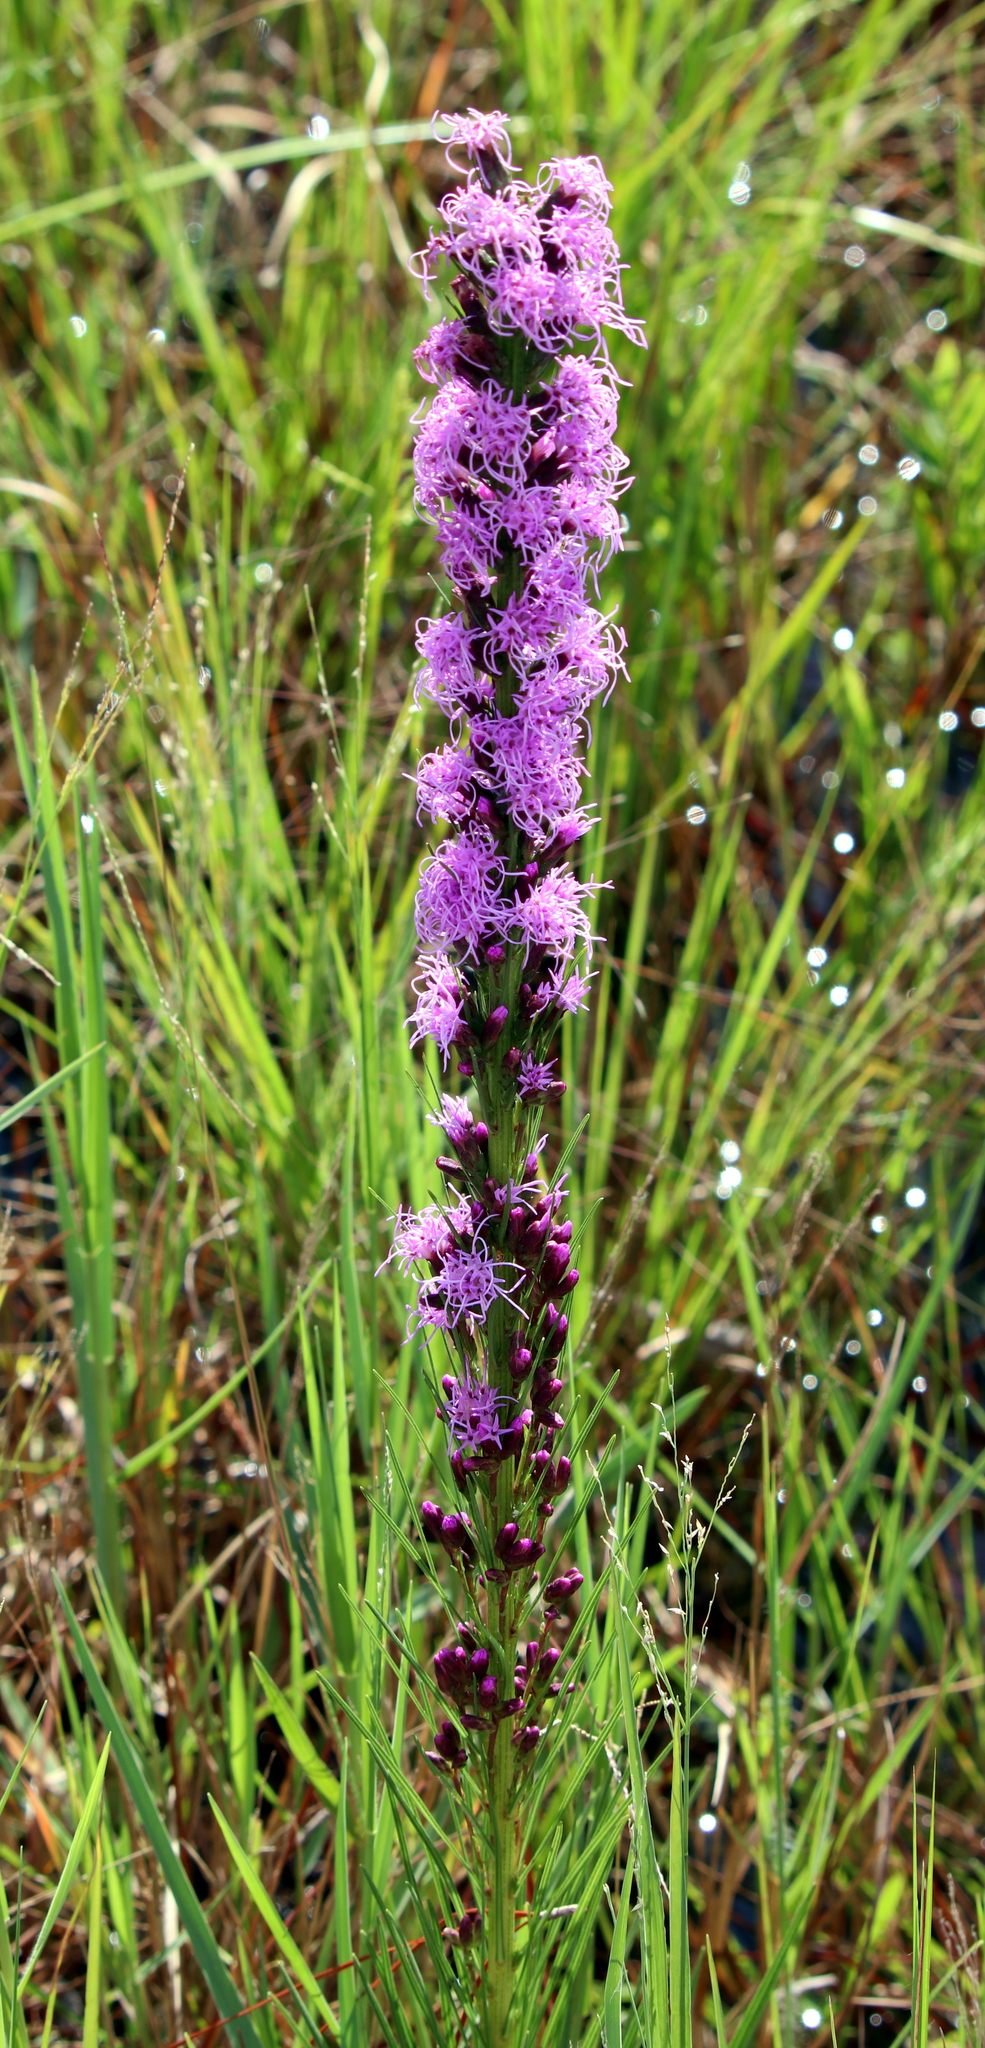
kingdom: Plantae
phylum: Tracheophyta
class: Magnoliopsida
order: Asterales
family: Asteraceae
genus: Liatris
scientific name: Liatris spicata
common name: Florist gayfeather
